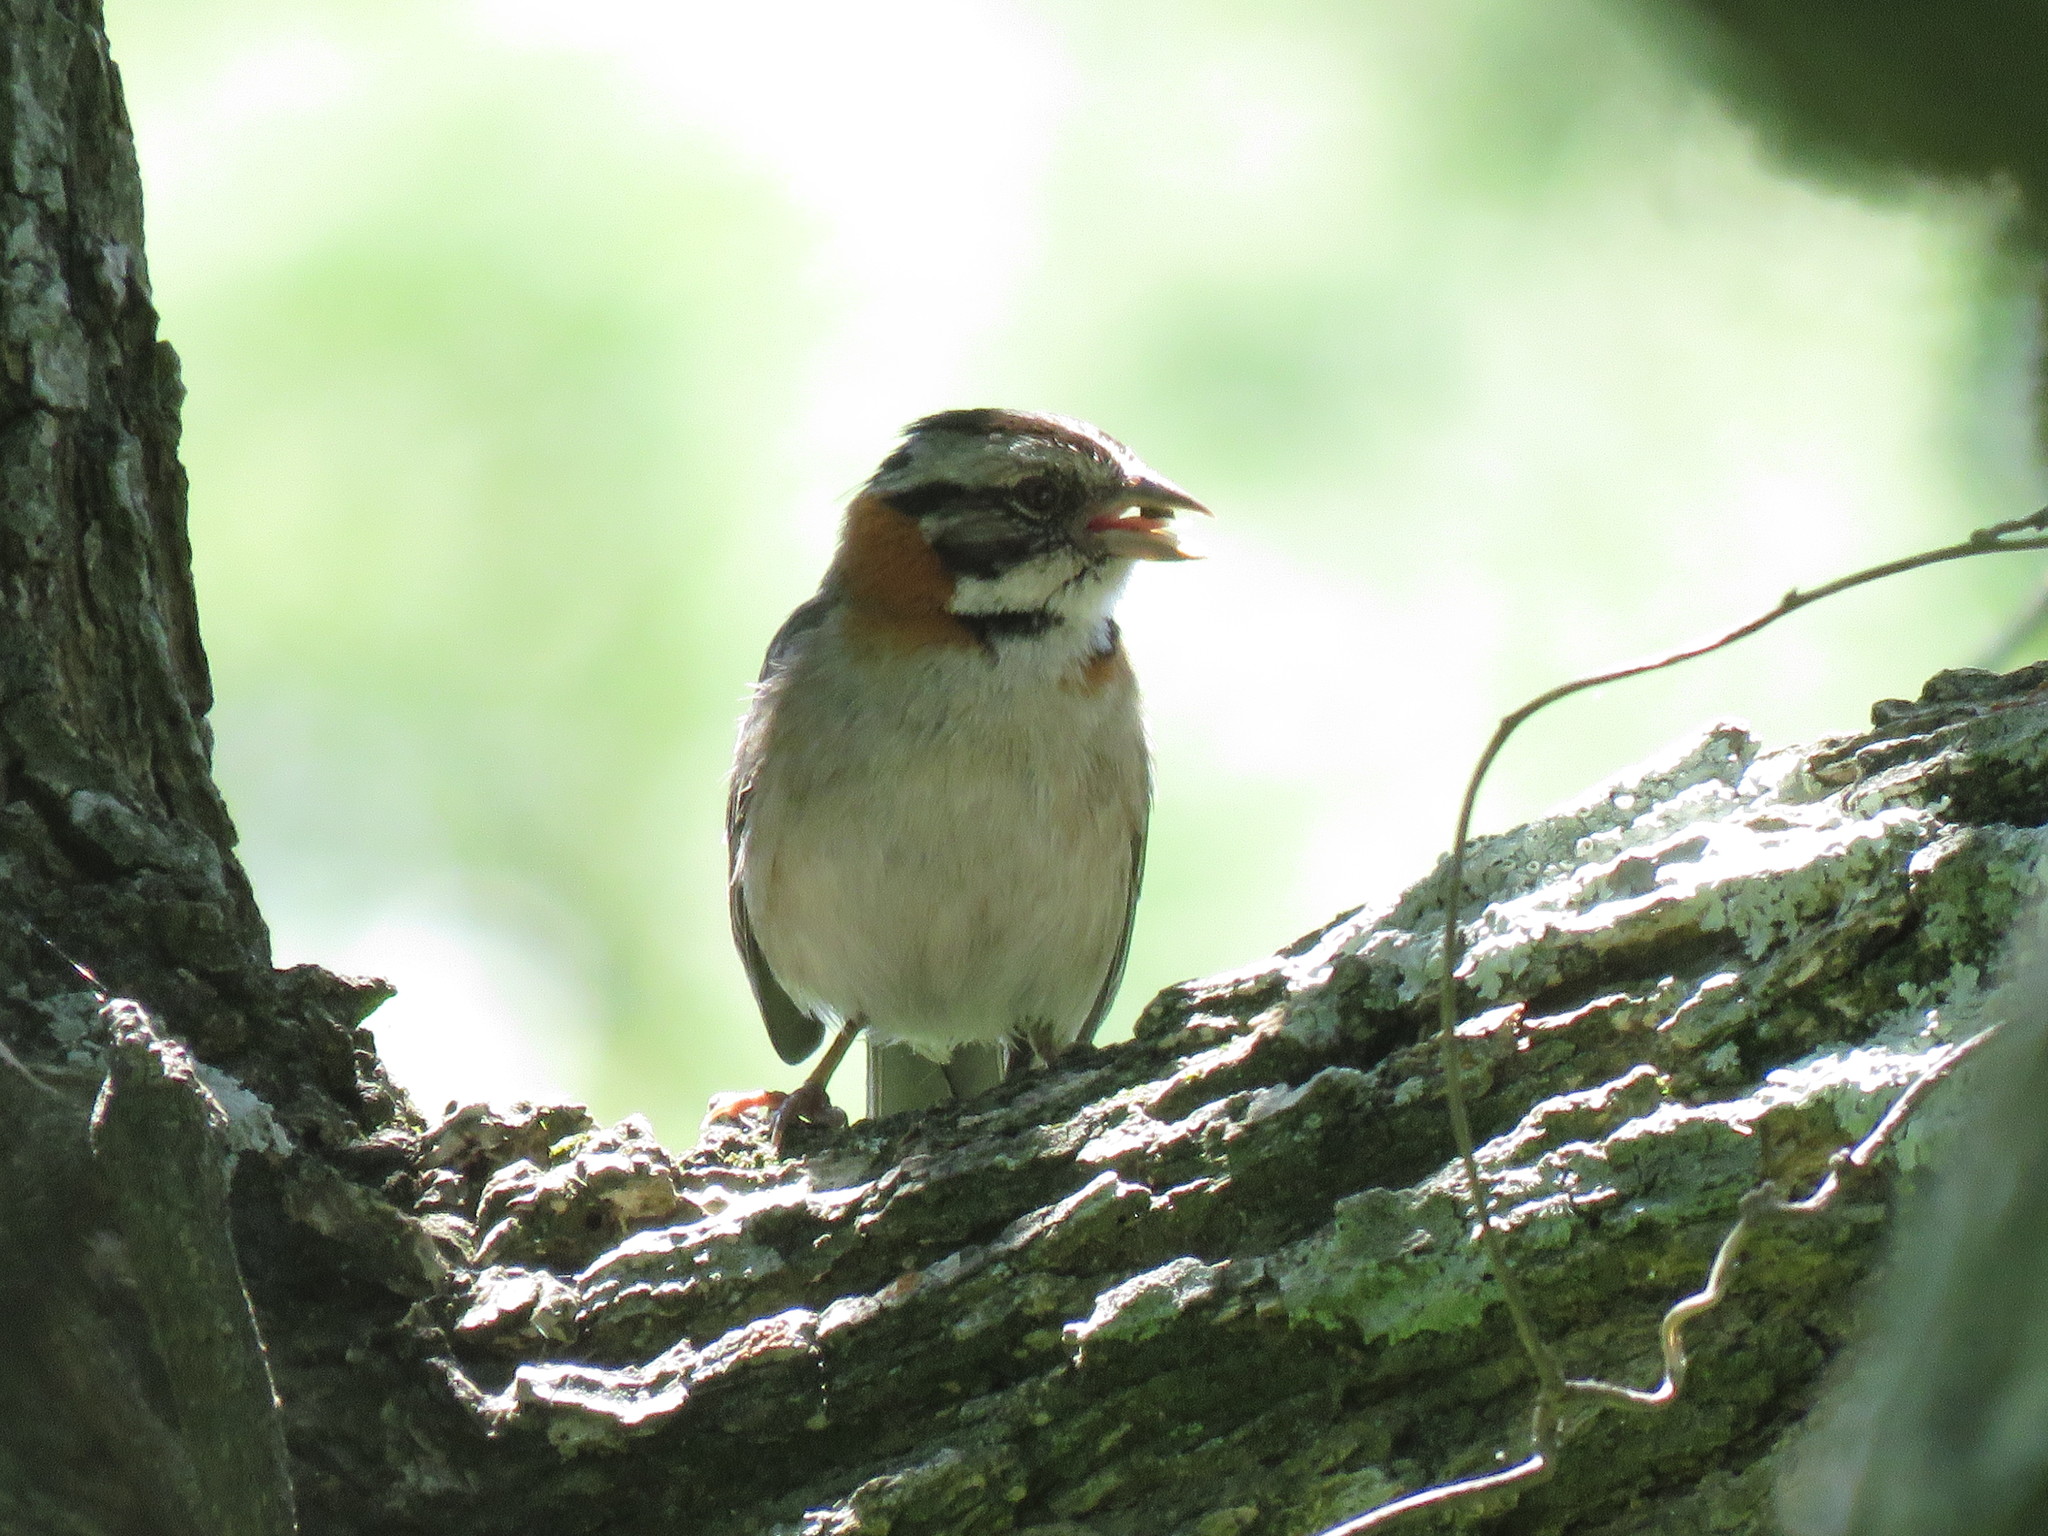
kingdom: Animalia
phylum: Chordata
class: Aves
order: Passeriformes
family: Passerellidae
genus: Zonotrichia
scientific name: Zonotrichia capensis
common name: Rufous-collared sparrow
